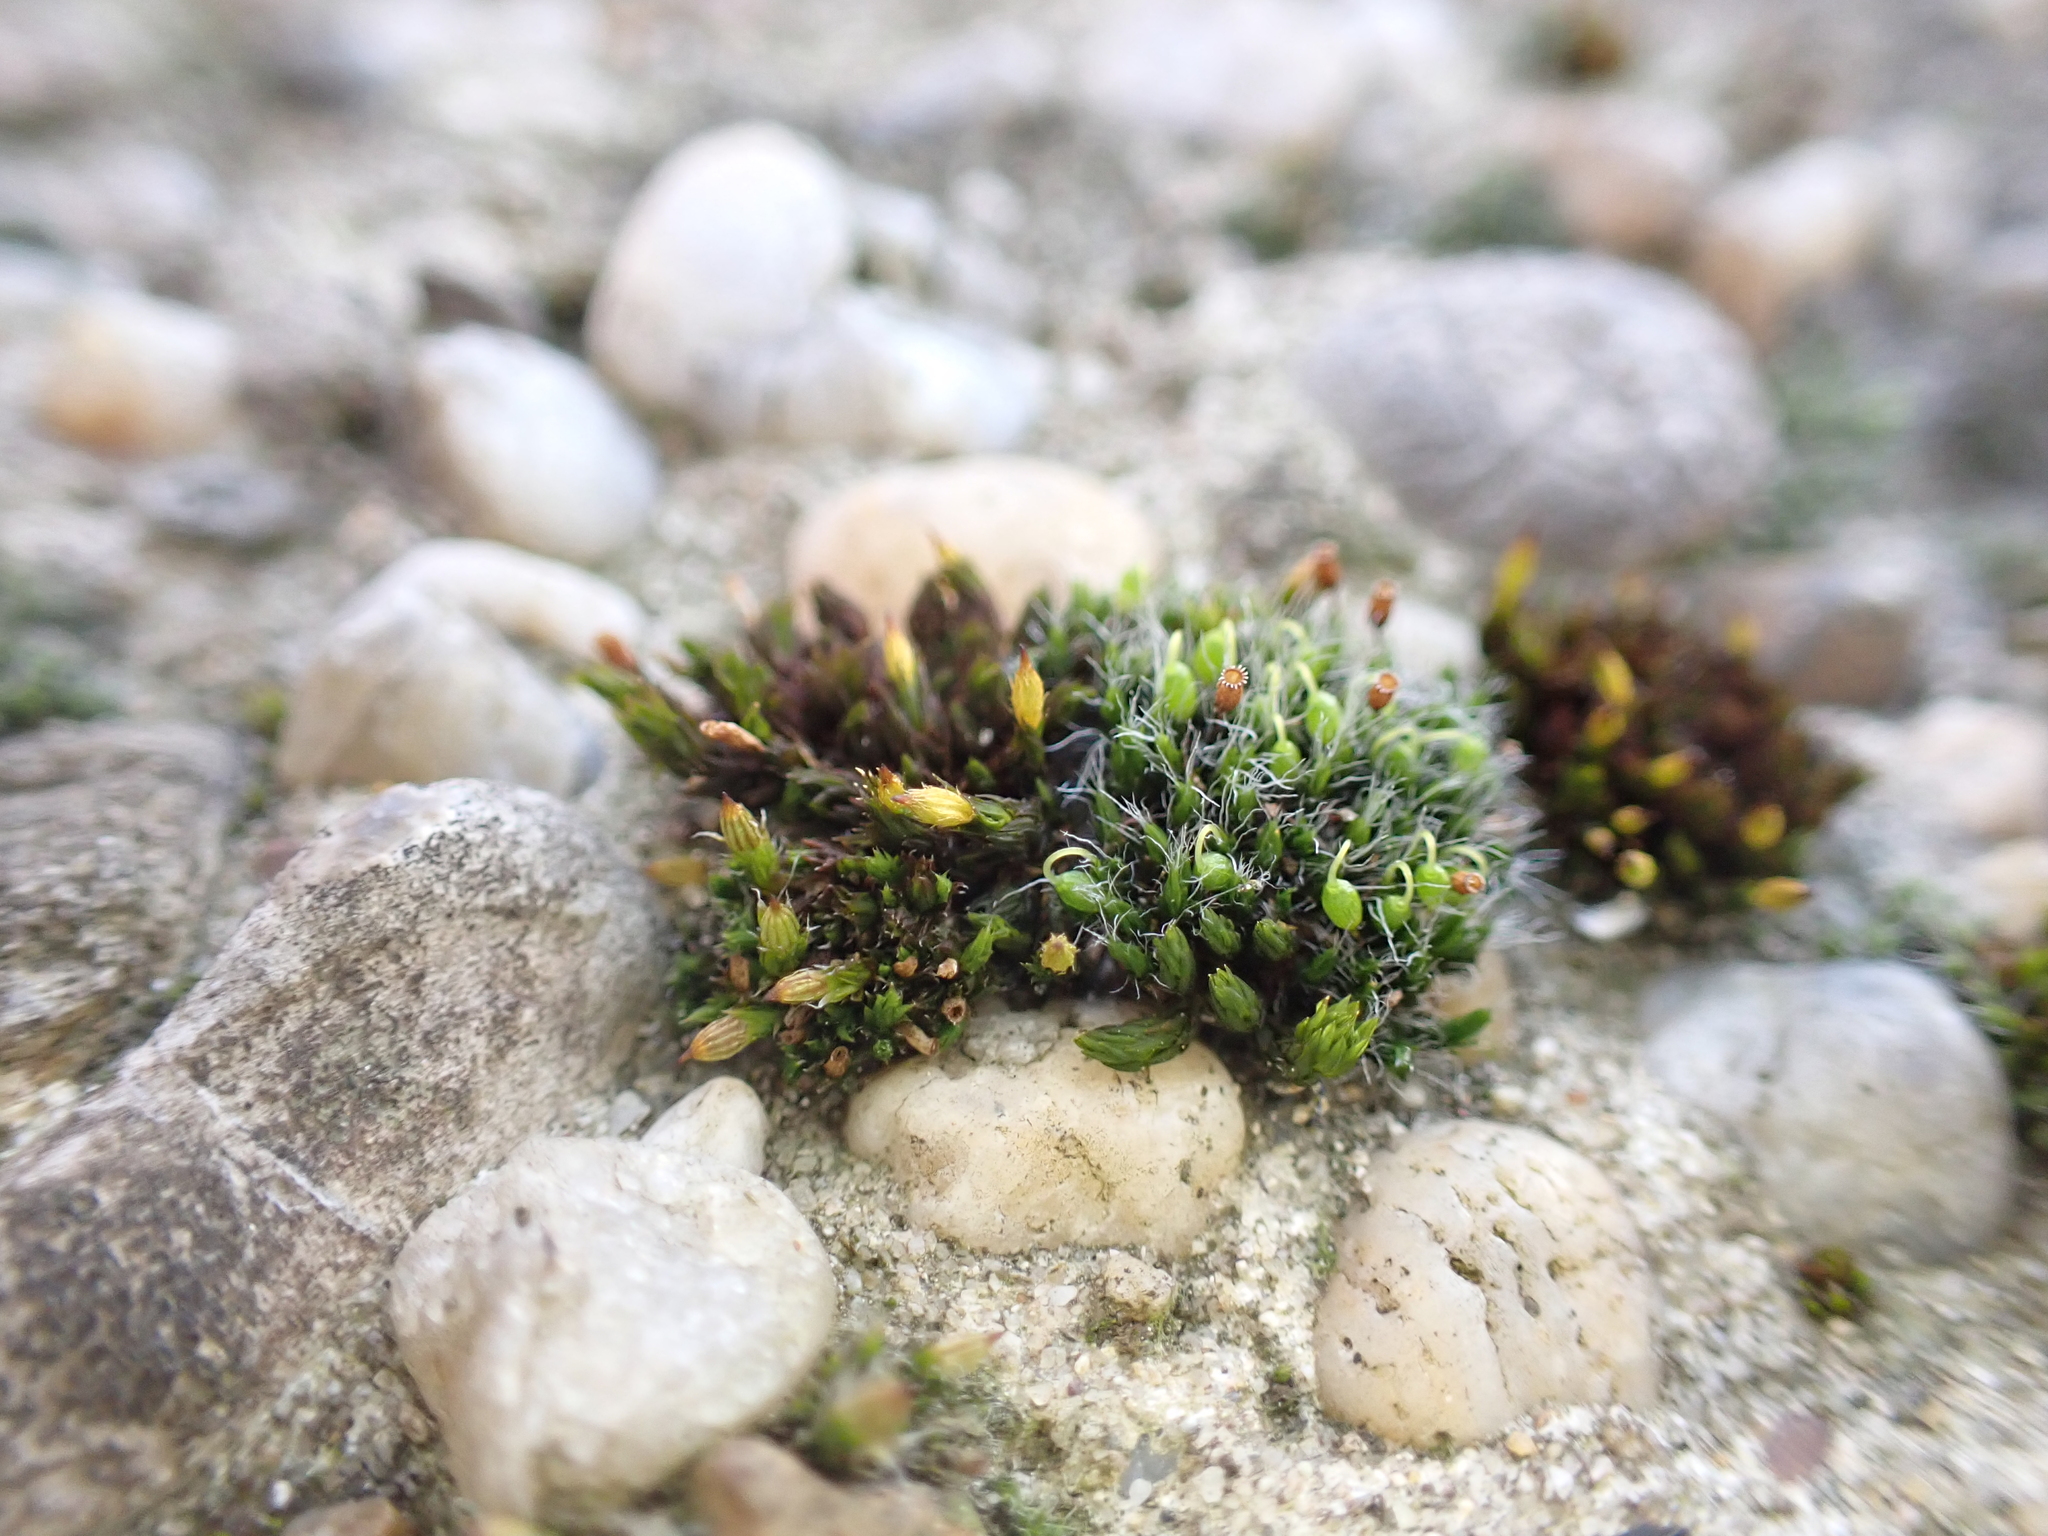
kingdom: Plantae
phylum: Bryophyta
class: Bryopsida
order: Grimmiales
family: Grimmiaceae
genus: Grimmia
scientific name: Grimmia pulvinata
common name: Grey-cushioned grimmia
